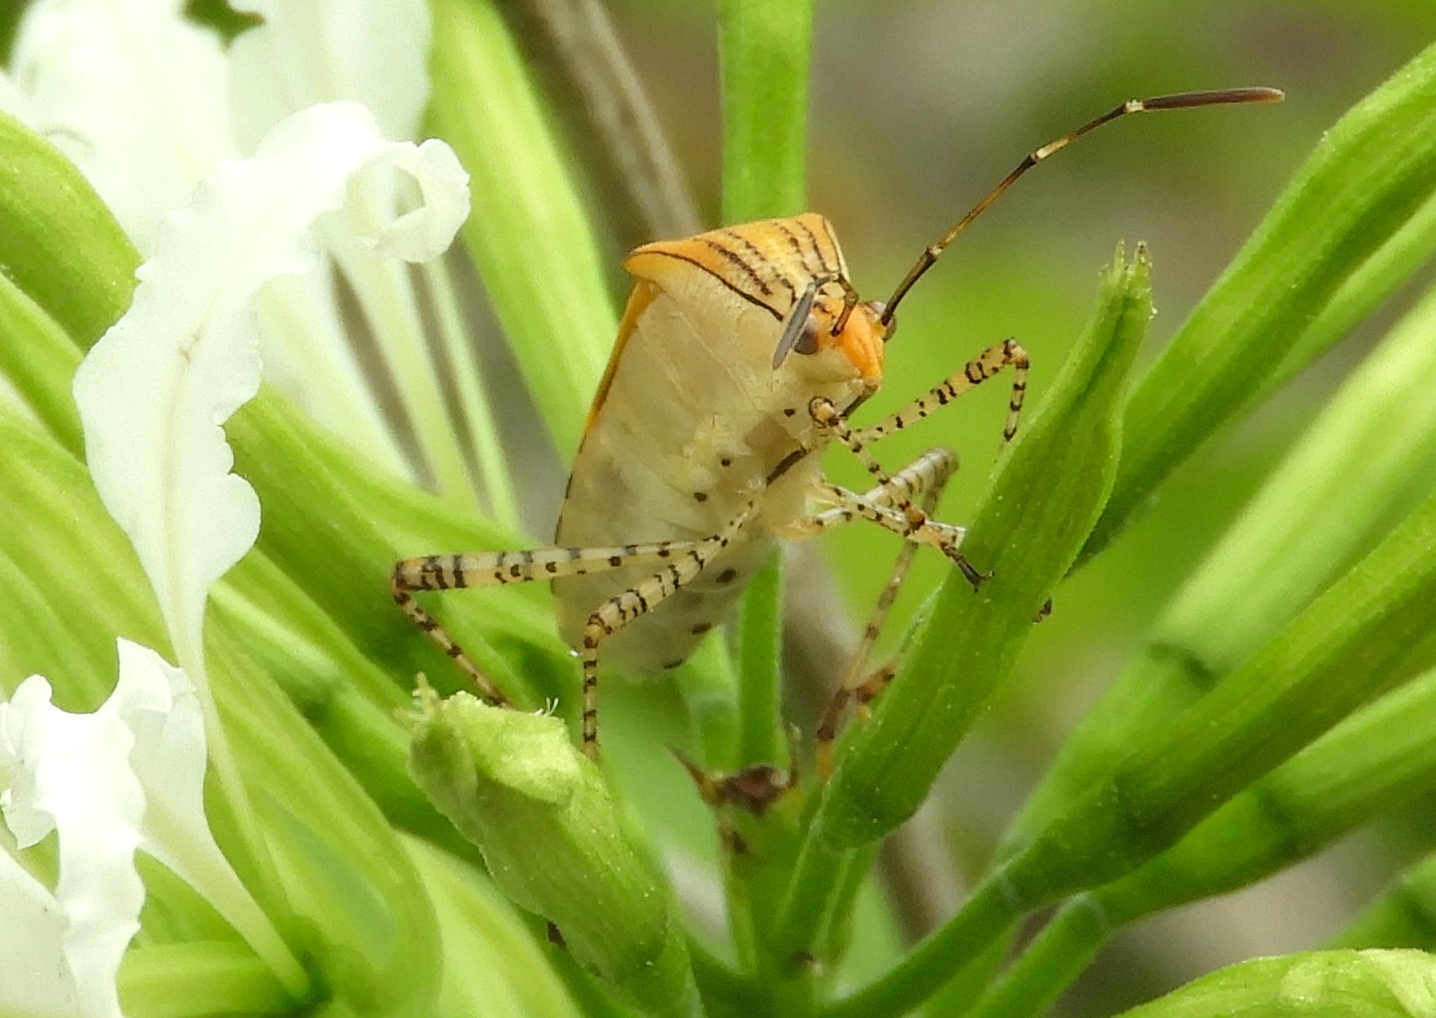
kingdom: Animalia
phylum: Arthropoda
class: Insecta
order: Hemiptera
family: Coreidae
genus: Hypselonotus
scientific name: Hypselonotus lineatus
